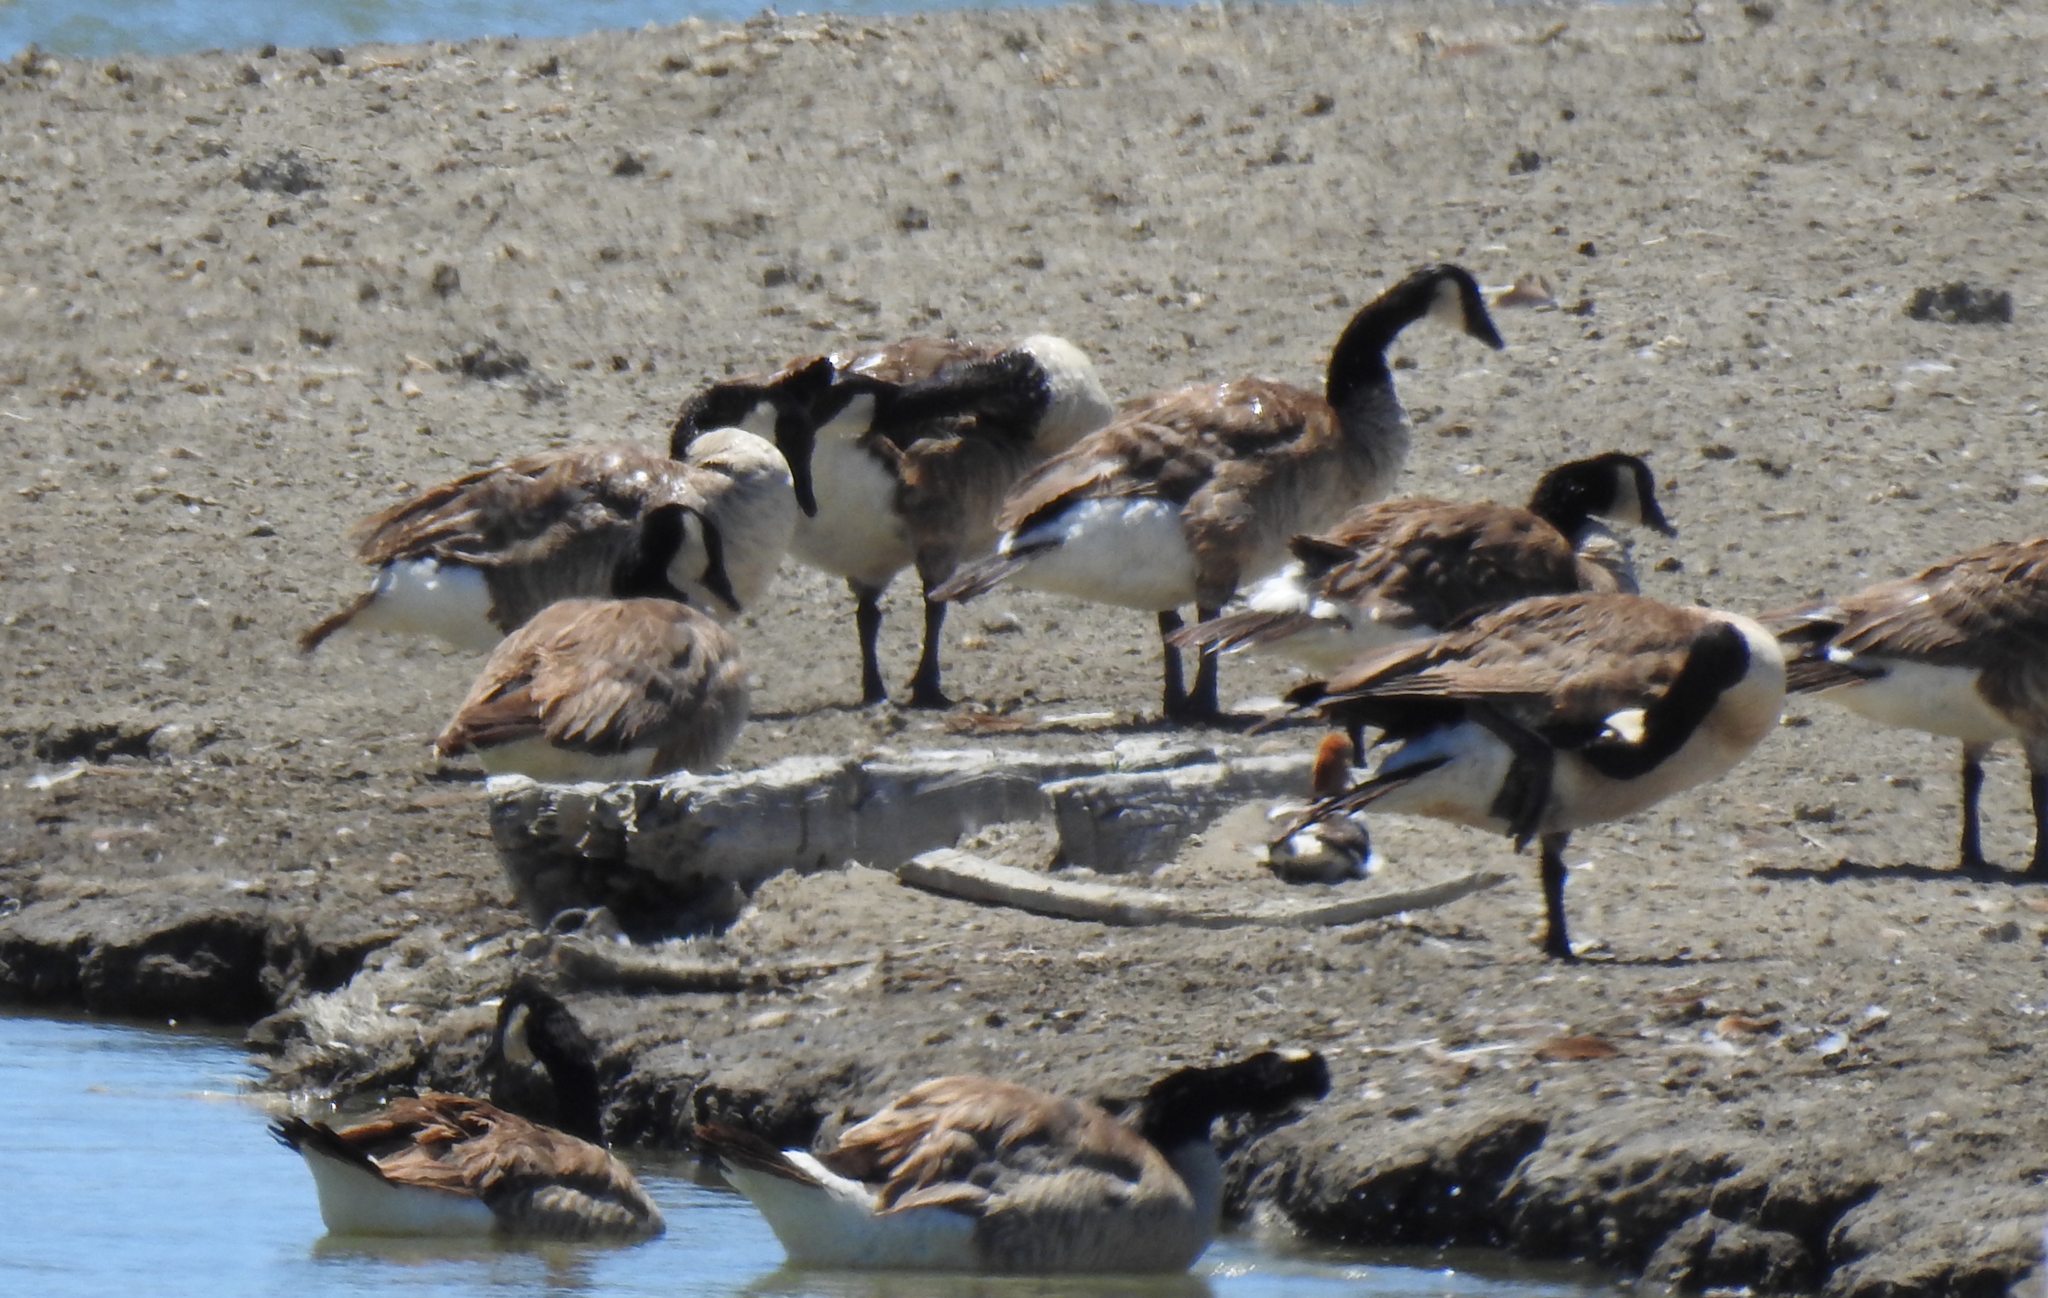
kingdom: Animalia
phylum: Chordata
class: Aves
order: Anseriformes
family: Anatidae
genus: Branta
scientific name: Branta canadensis
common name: Canada goose
